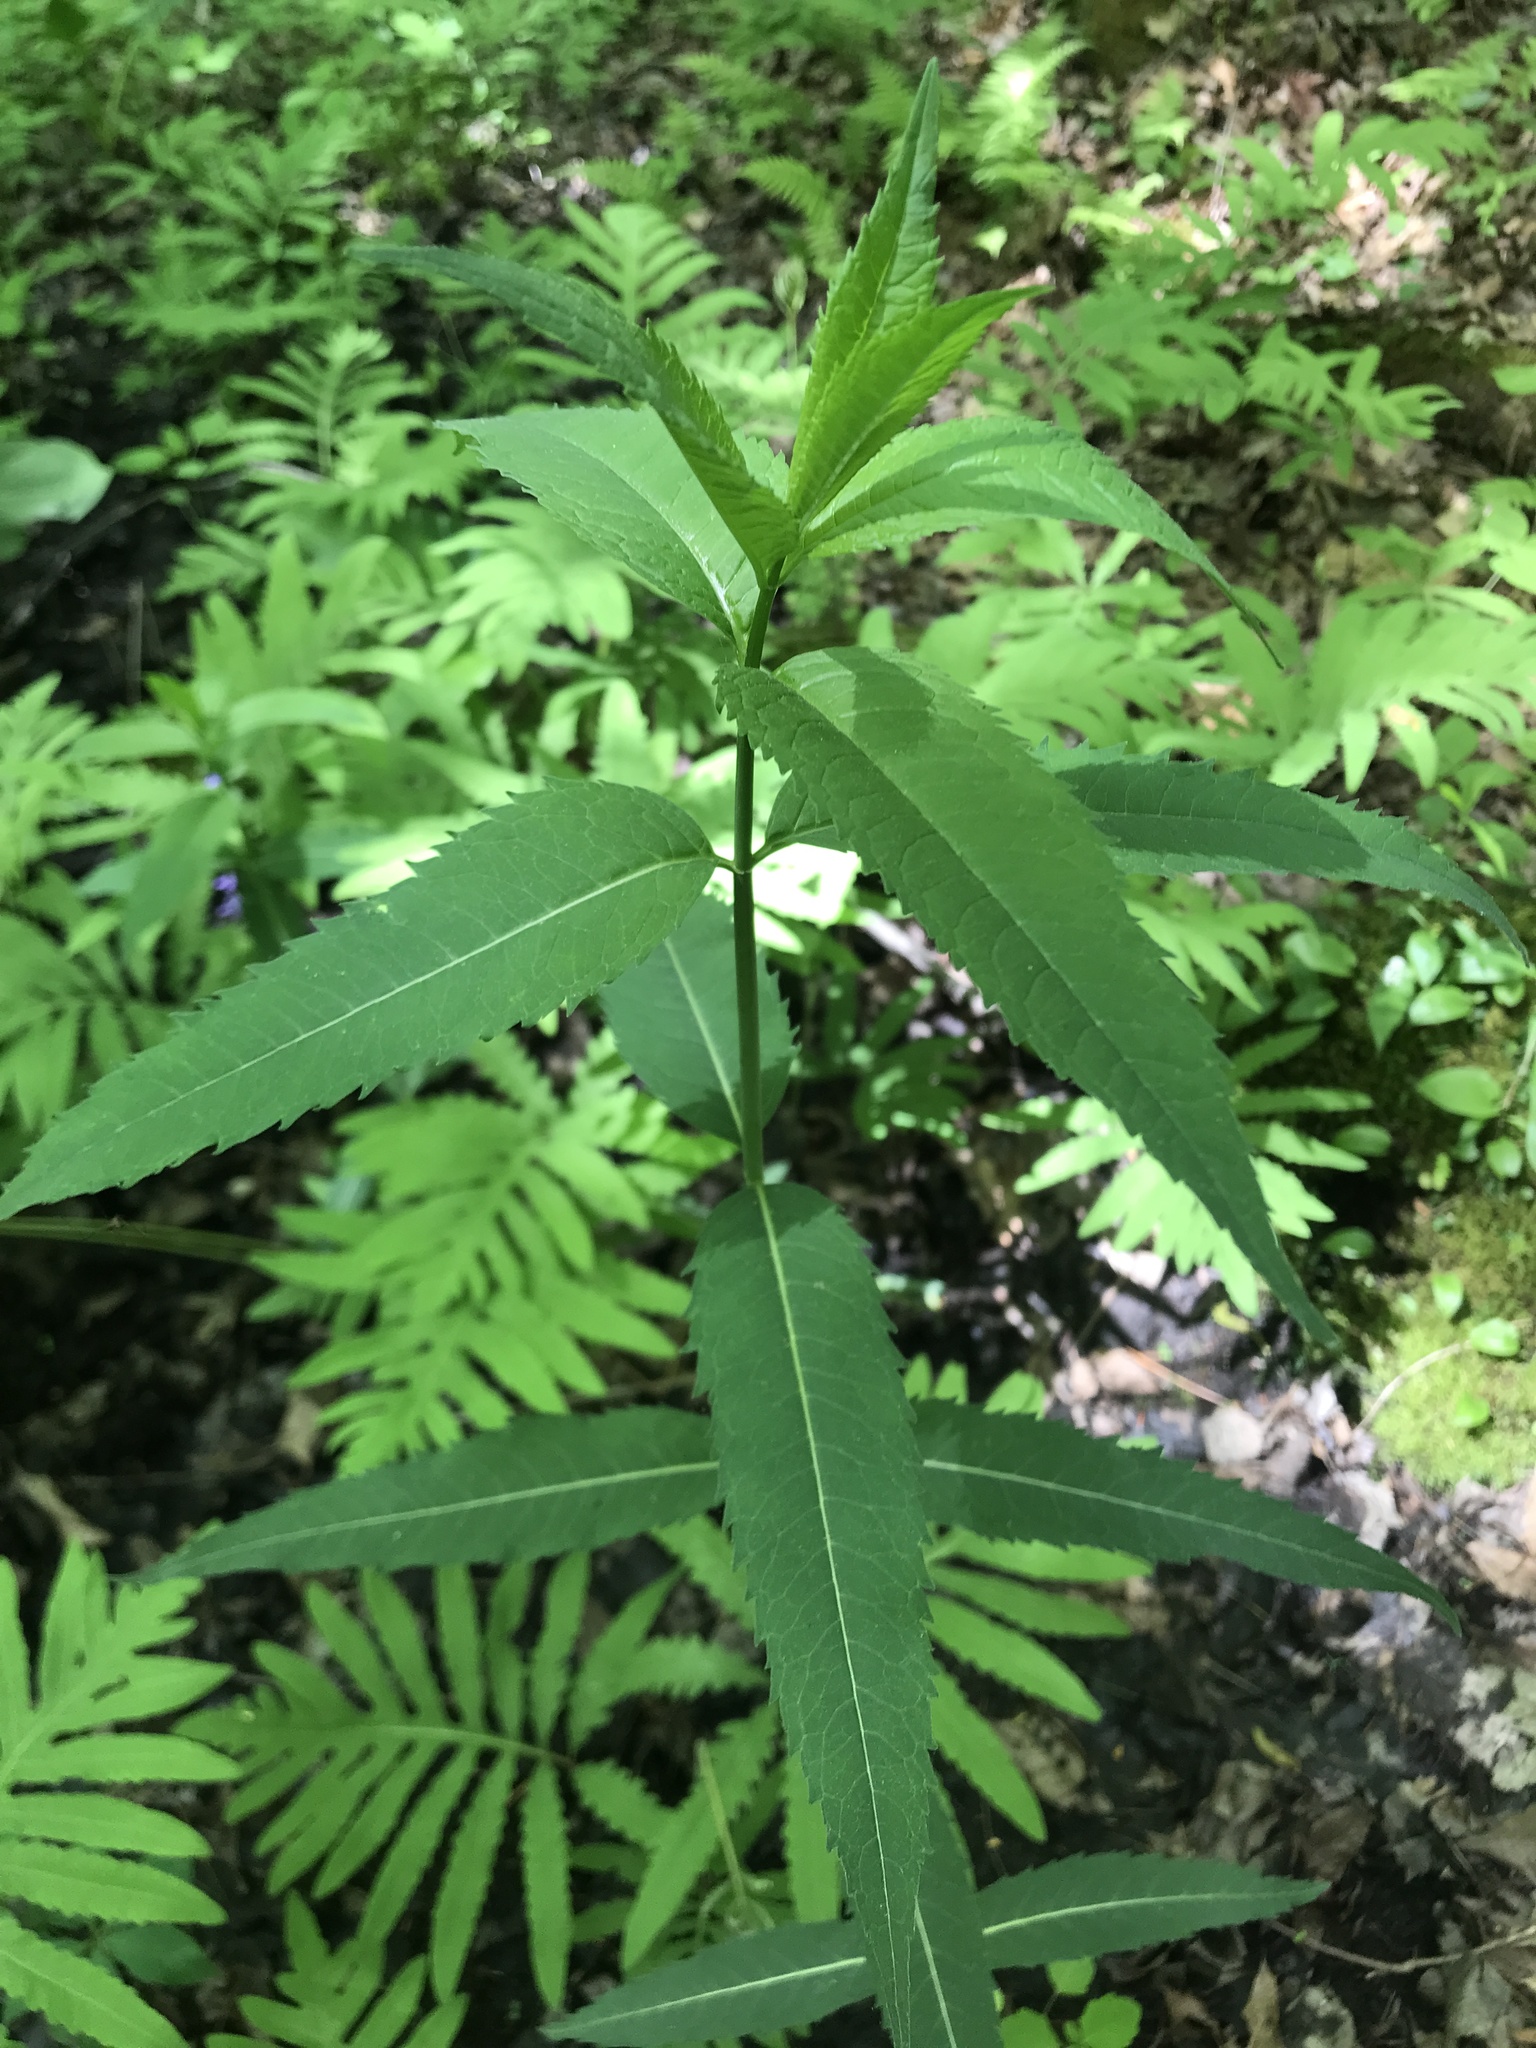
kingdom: Plantae
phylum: Tracheophyta
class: Magnoliopsida
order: Lamiales
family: Plantaginaceae
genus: Chelone
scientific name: Chelone glabra
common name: Snakehead
